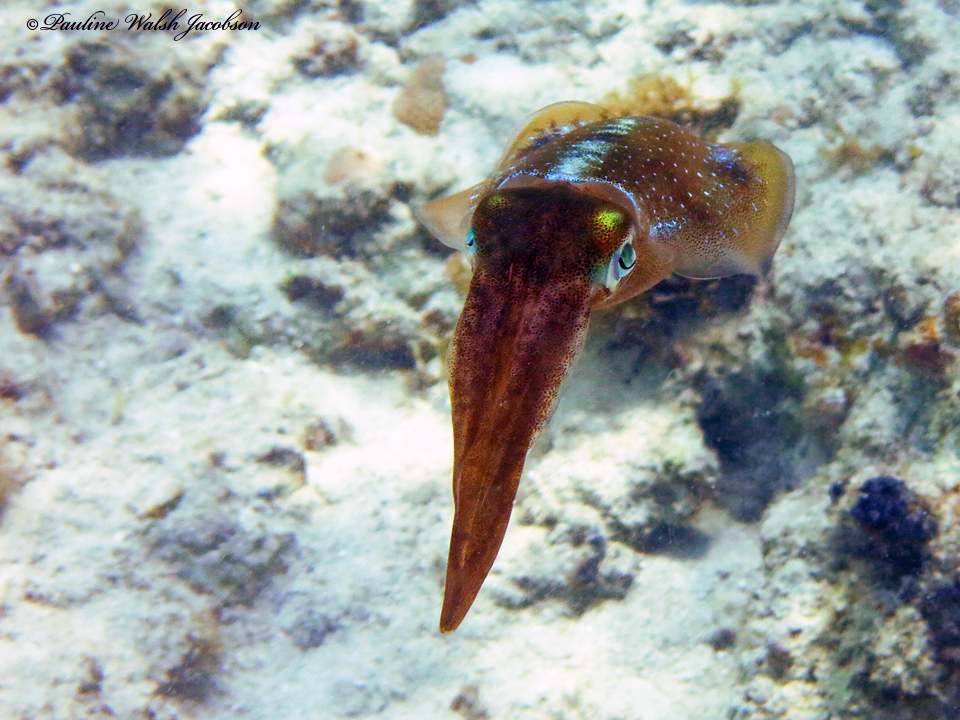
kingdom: Animalia
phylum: Mollusca
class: Cephalopoda
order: Myopsida
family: Loliginidae
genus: Sepioteuthis
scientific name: Sepioteuthis sepioidea
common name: Caribbean reef squid
